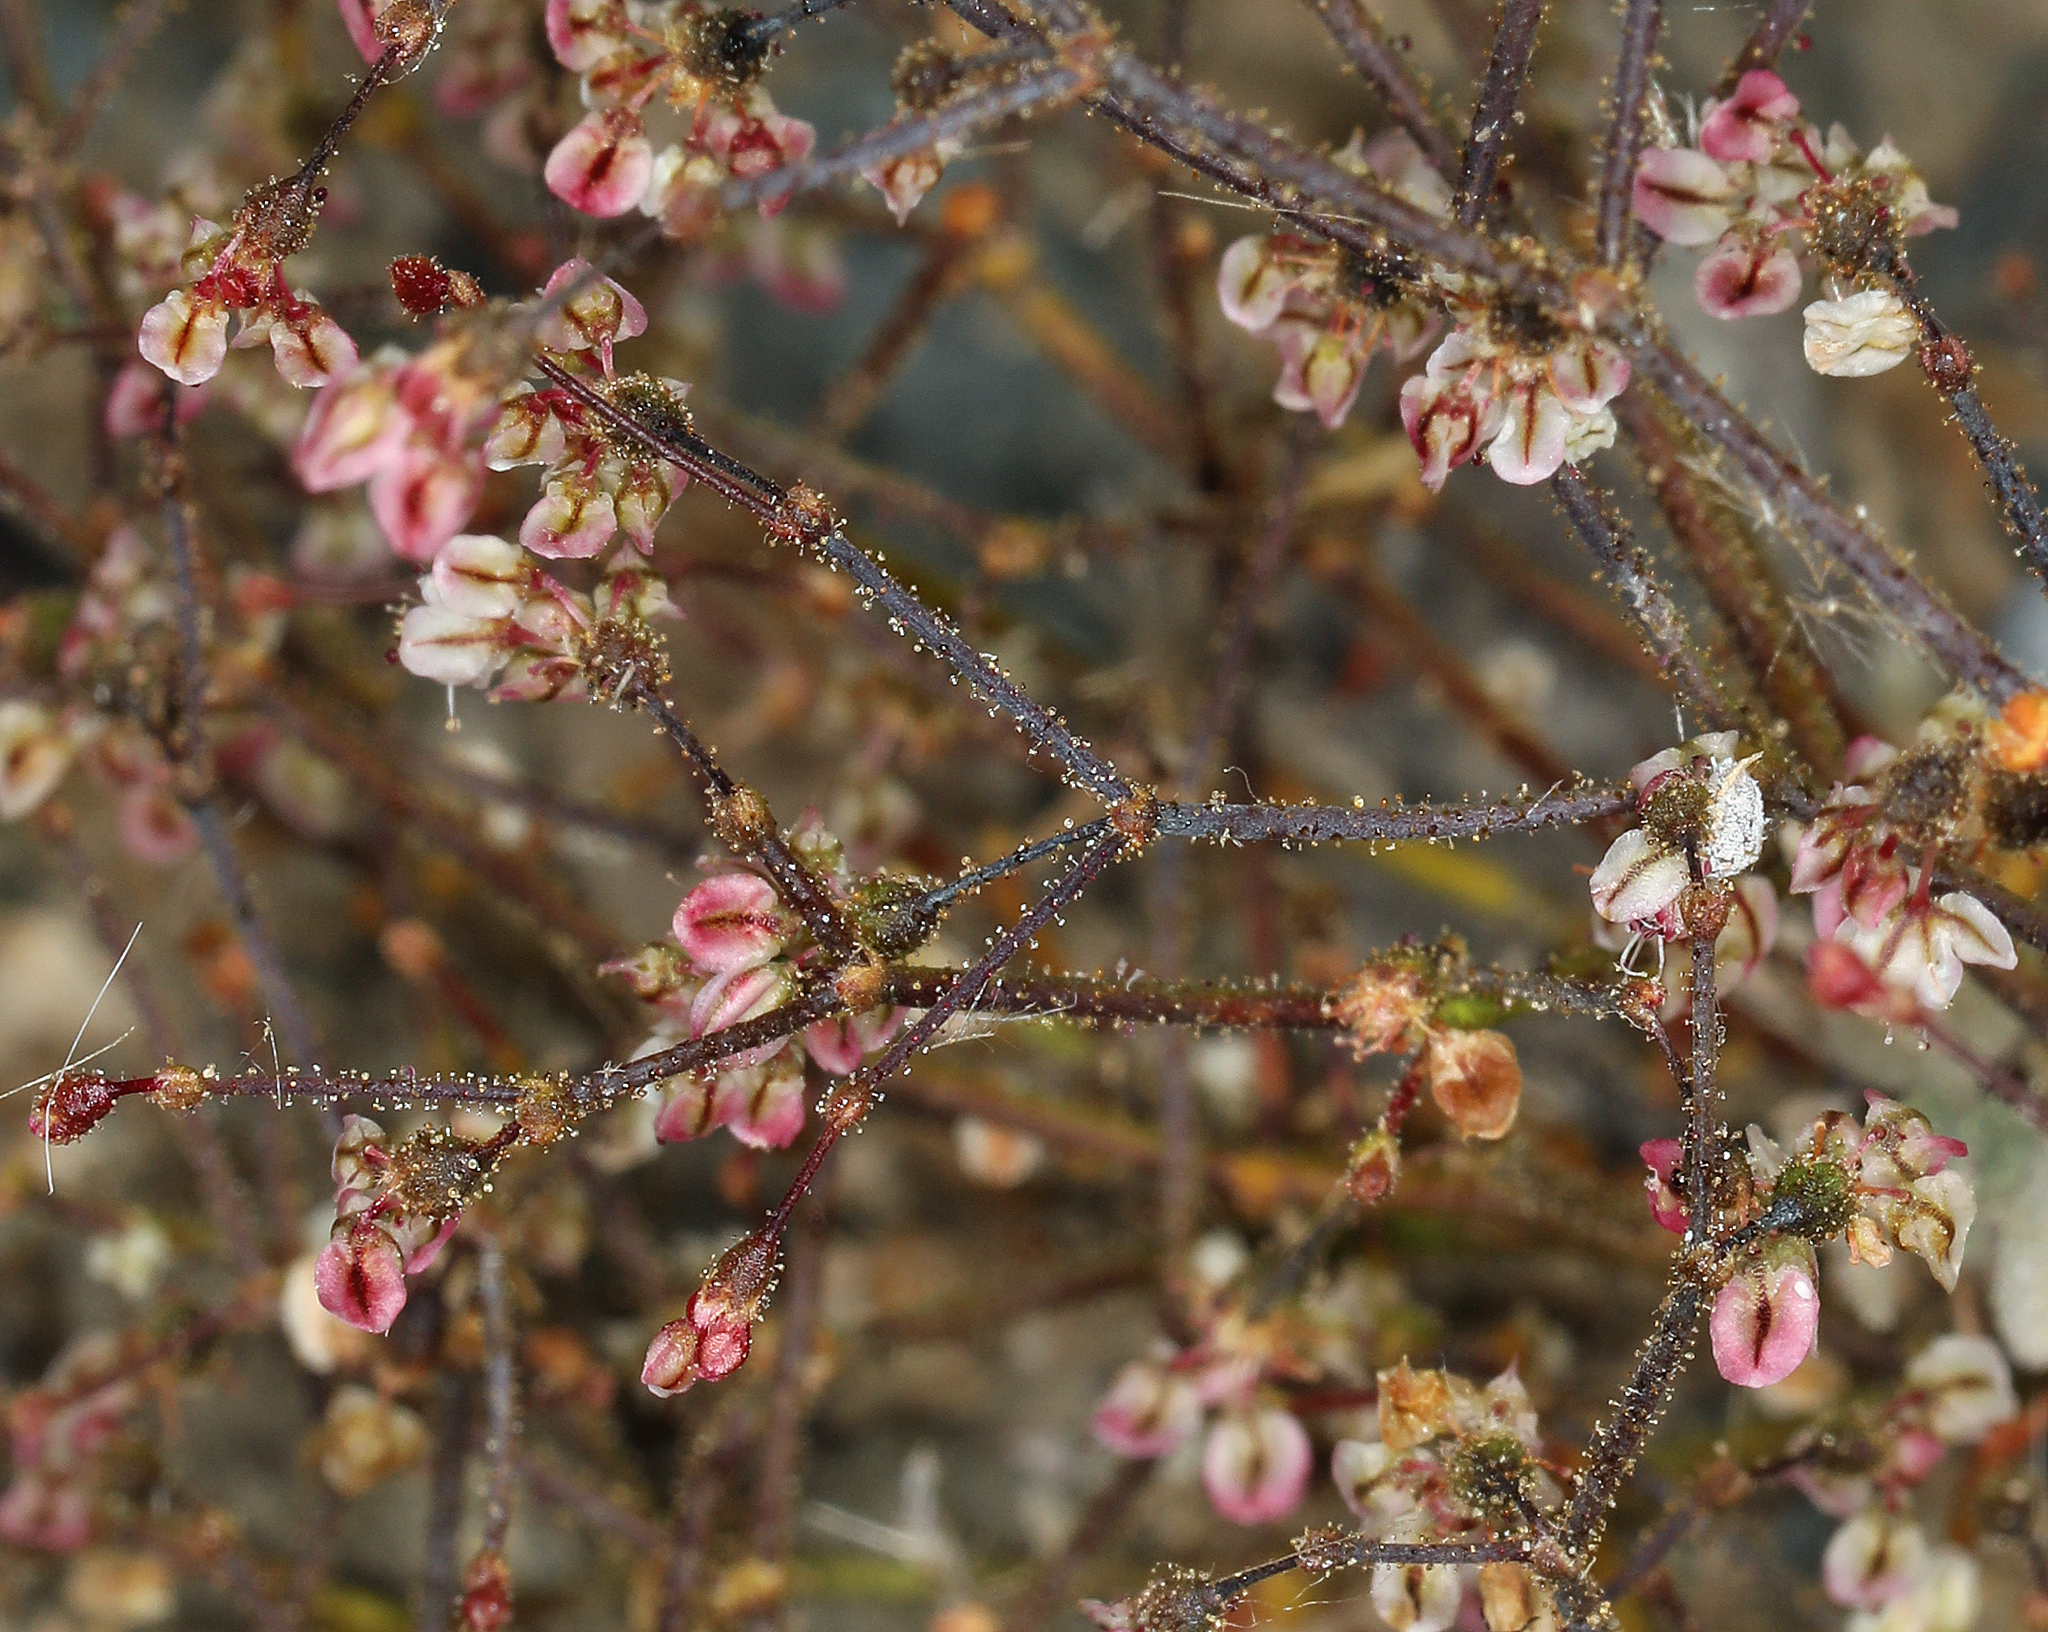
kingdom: Plantae
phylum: Tracheophyta
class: Magnoliopsida
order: Caryophyllales
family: Polygonaceae
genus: Eriogonum
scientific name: Eriogonum brachypodum
